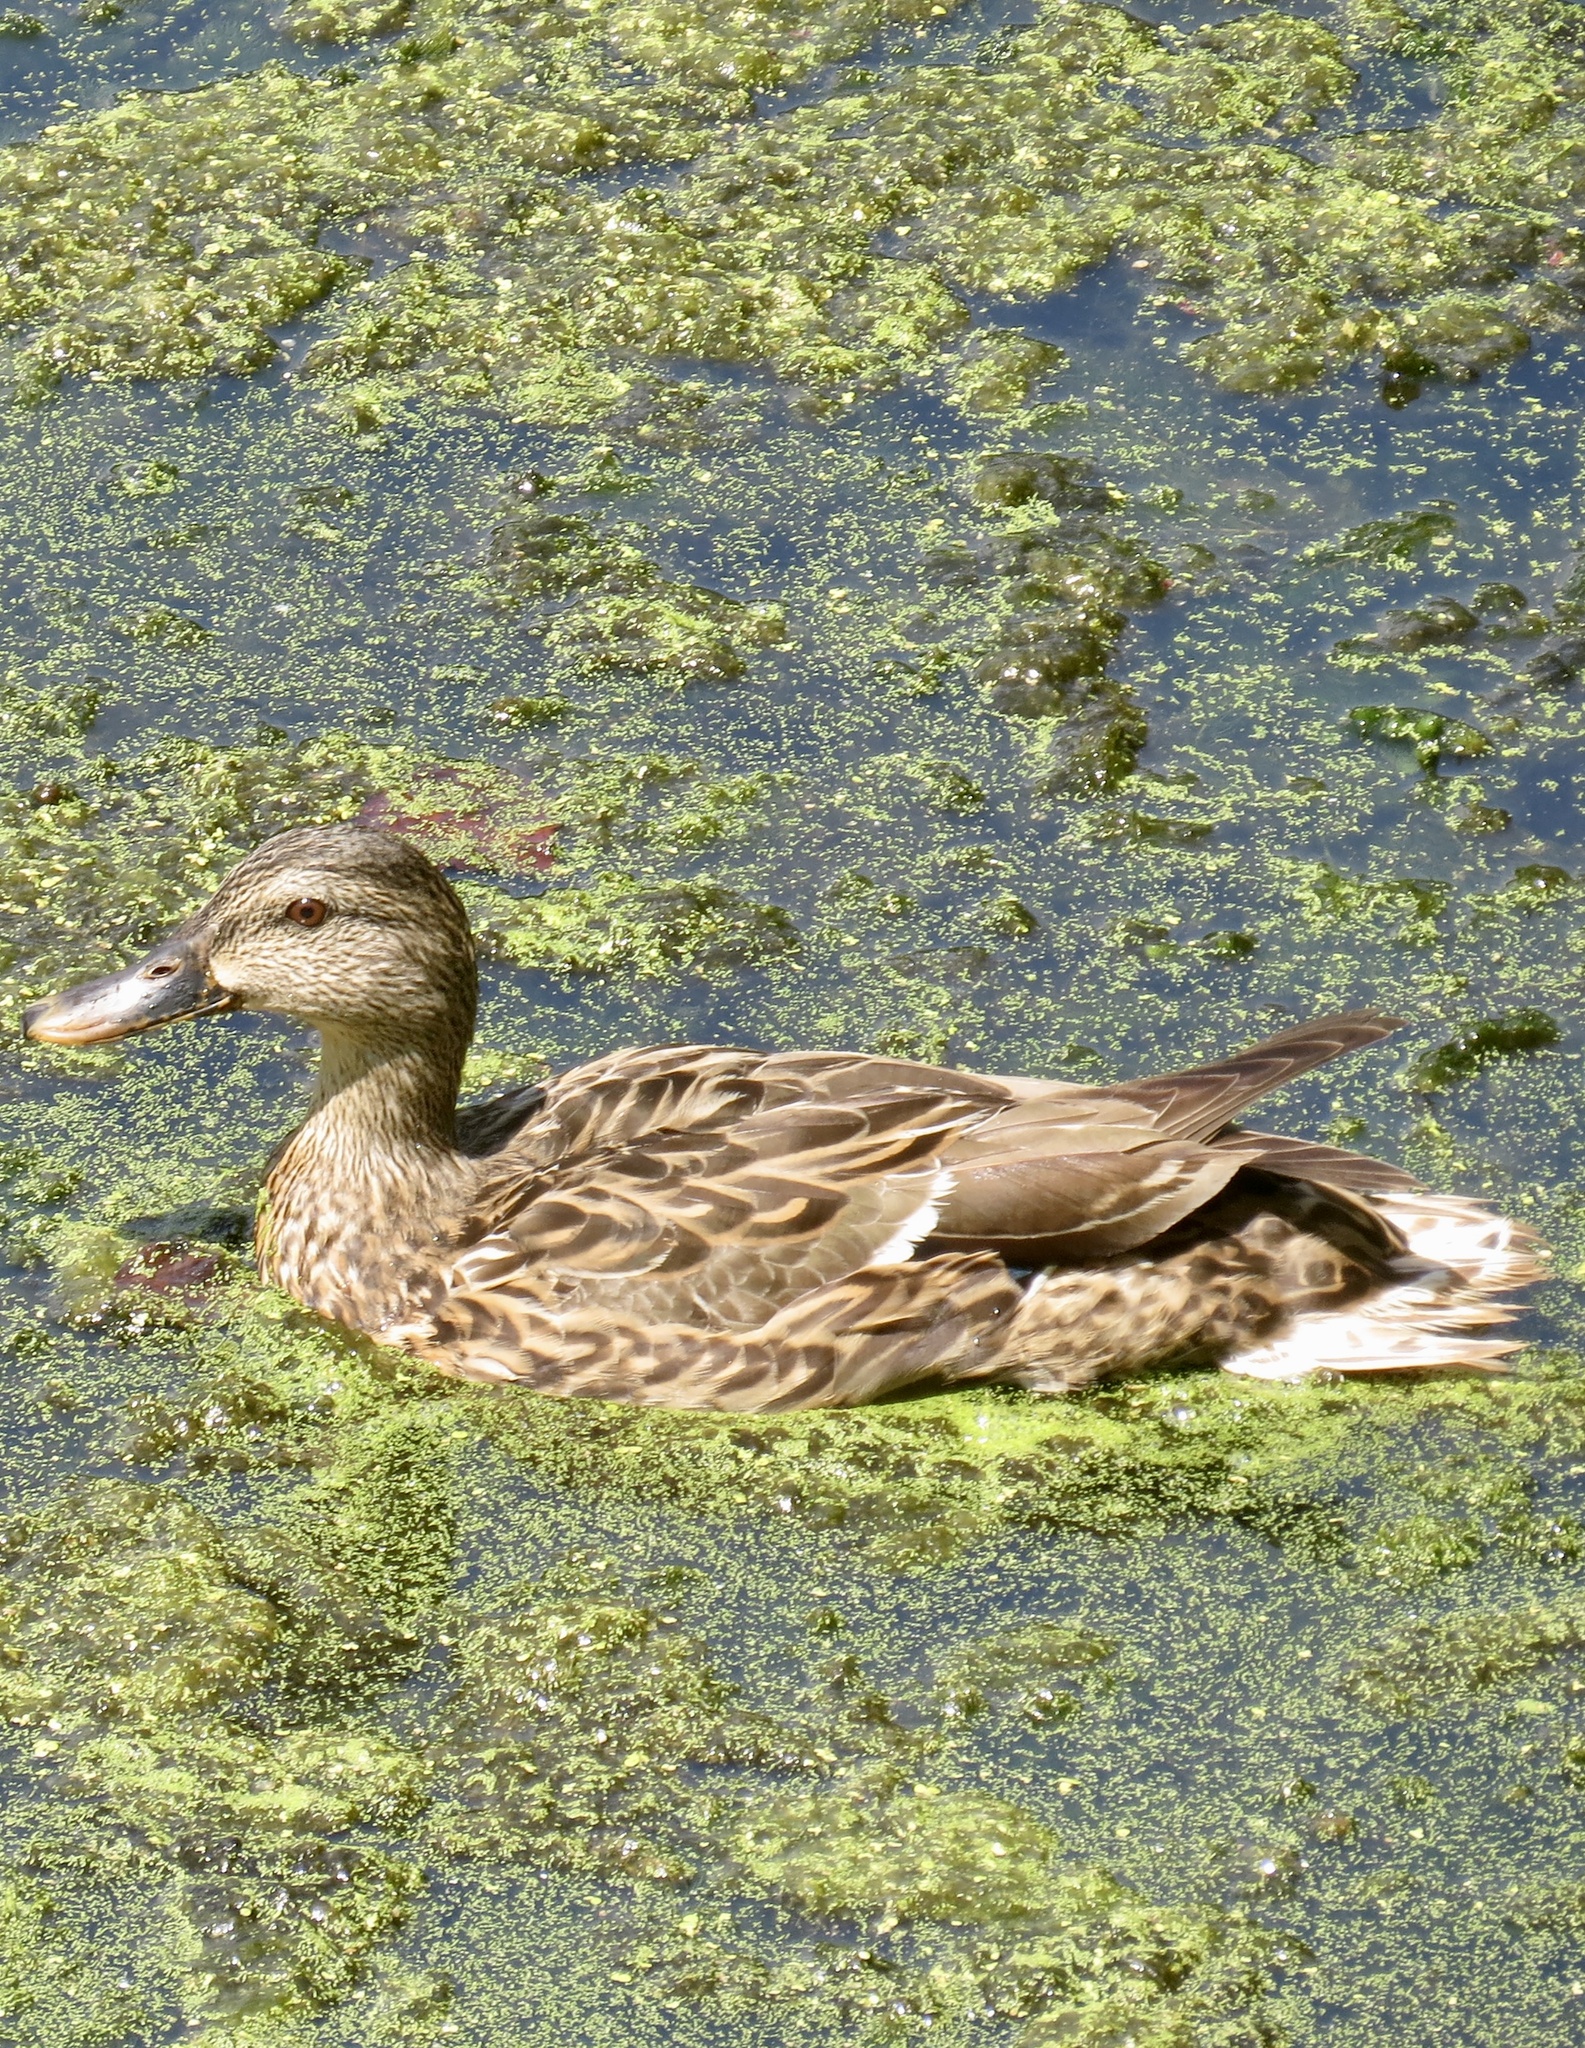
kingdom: Animalia
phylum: Chordata
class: Aves
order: Anseriformes
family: Anatidae
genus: Anas
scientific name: Anas platyrhynchos
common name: Mallard
